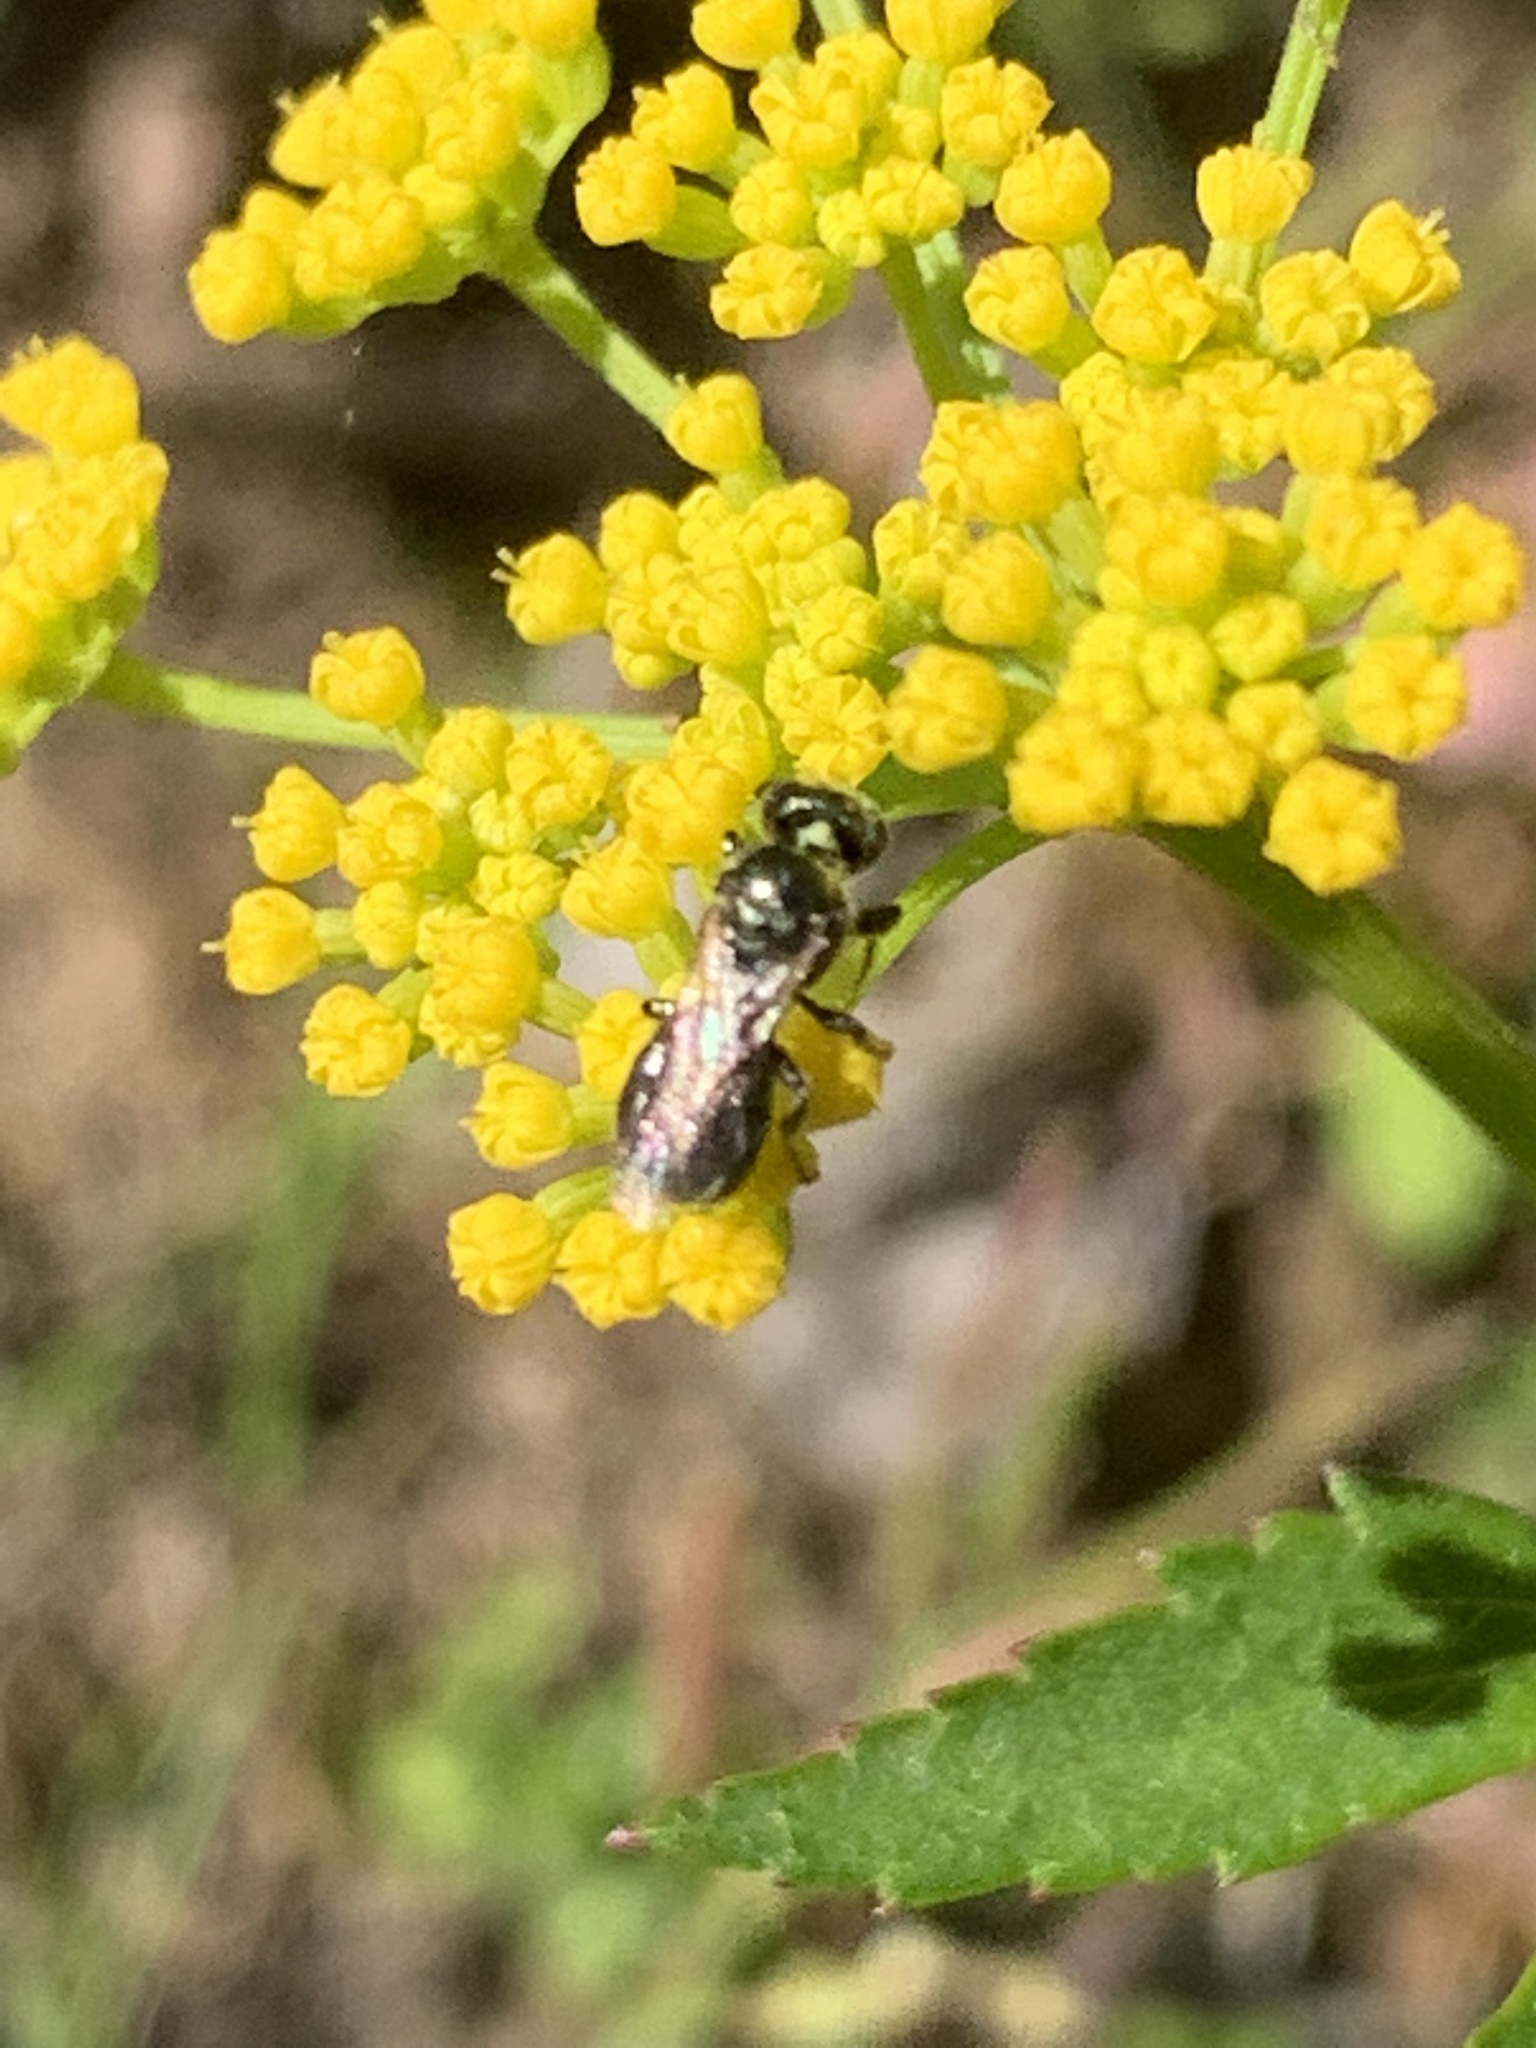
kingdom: Animalia
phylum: Arthropoda
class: Insecta
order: Hymenoptera
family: Apidae
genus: Zadontomerus
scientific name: Zadontomerus
